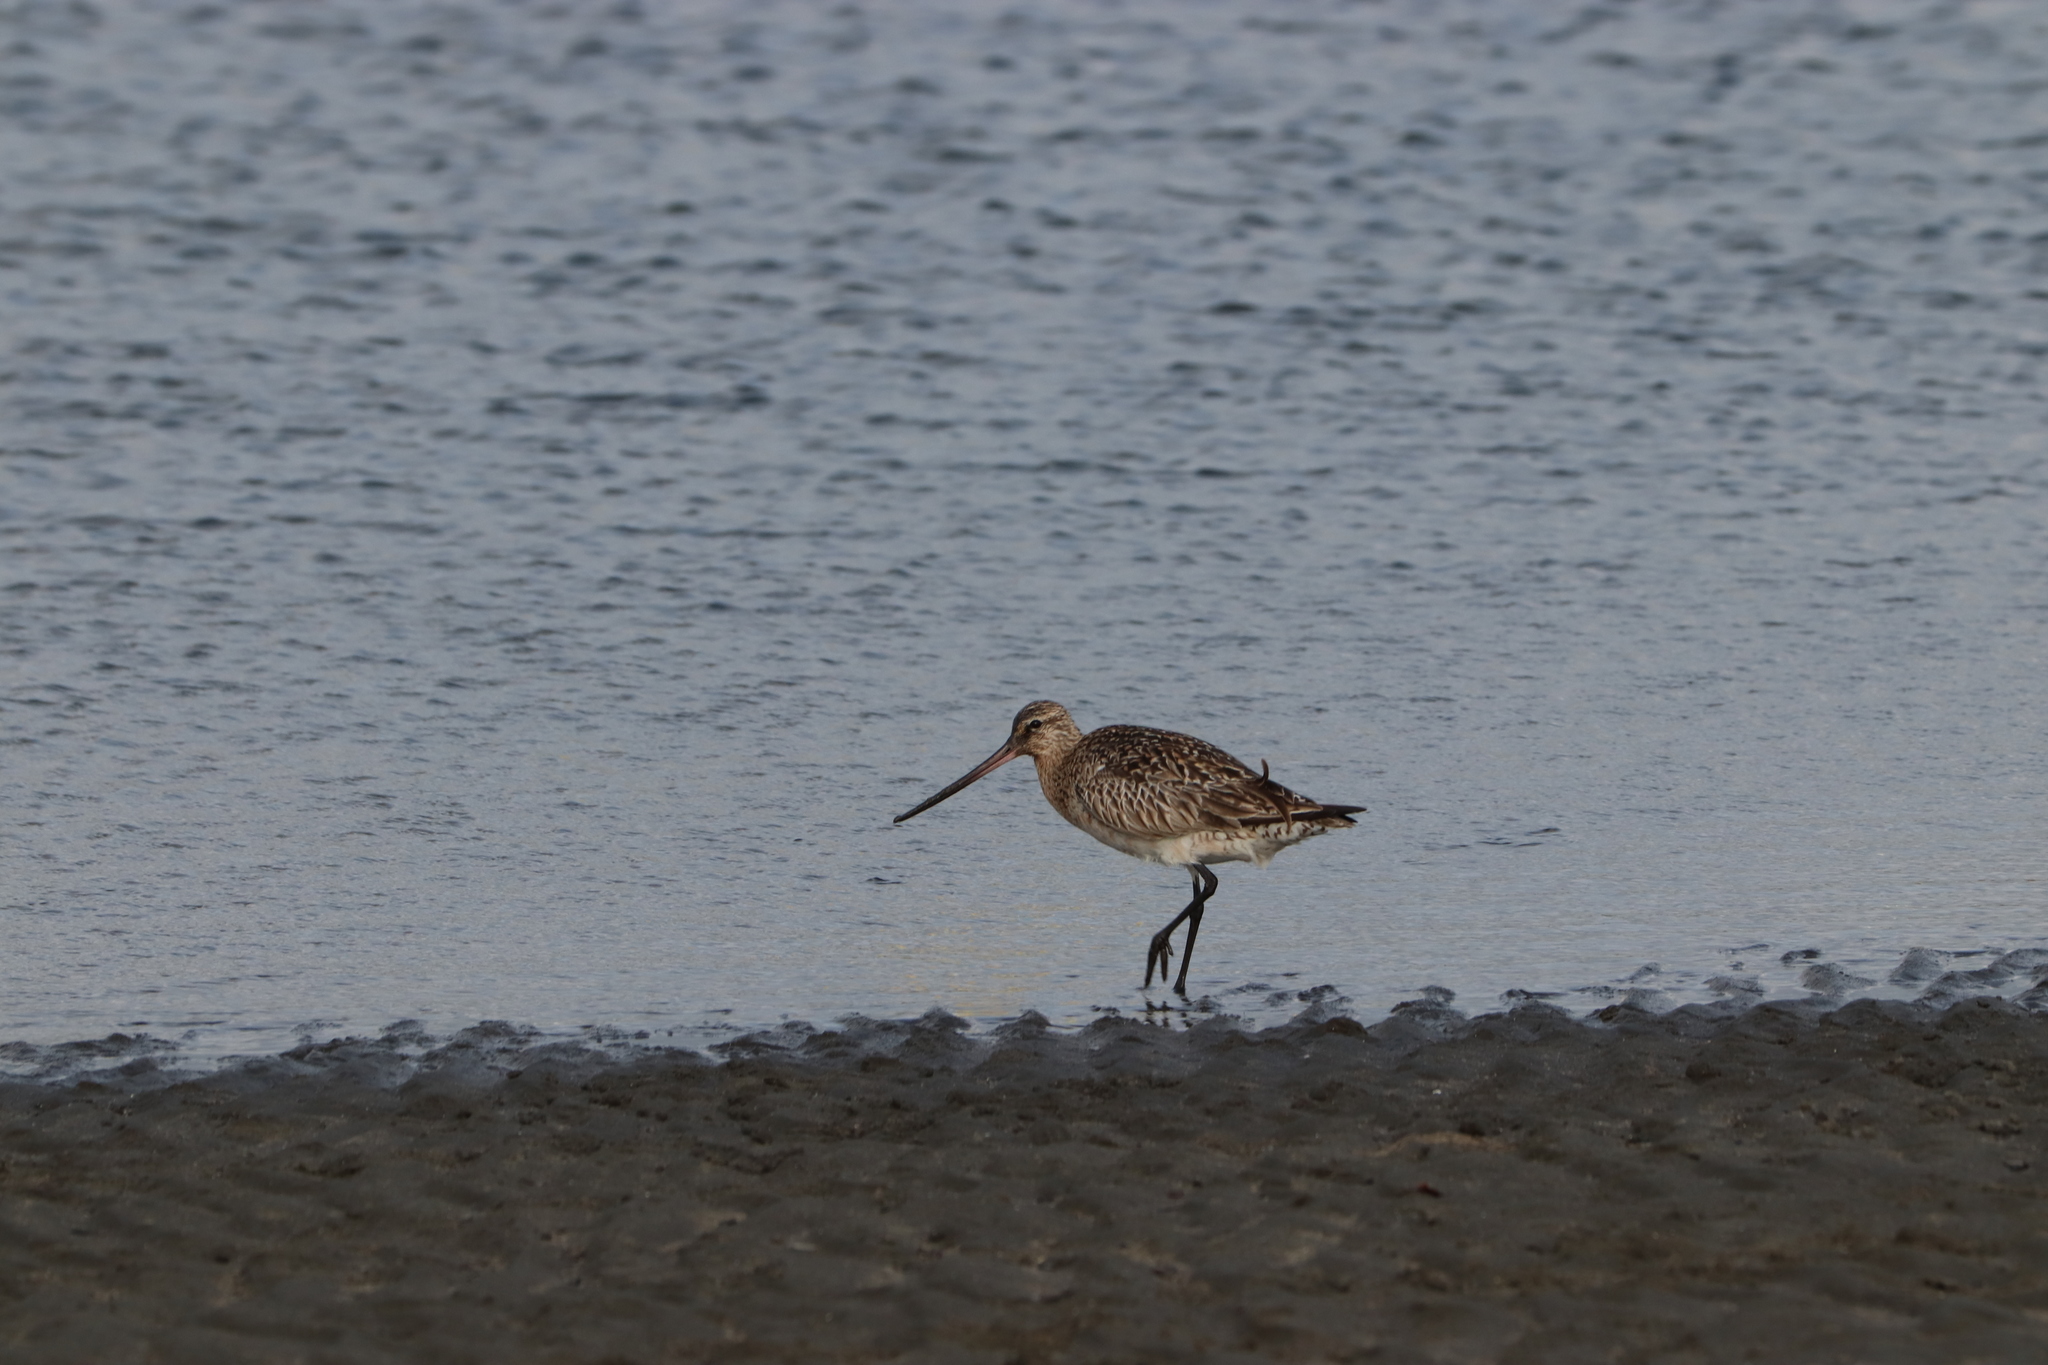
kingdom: Animalia
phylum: Chordata
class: Aves
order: Charadriiformes
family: Scolopacidae
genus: Limosa
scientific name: Limosa lapponica
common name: Bar-tailed godwit
